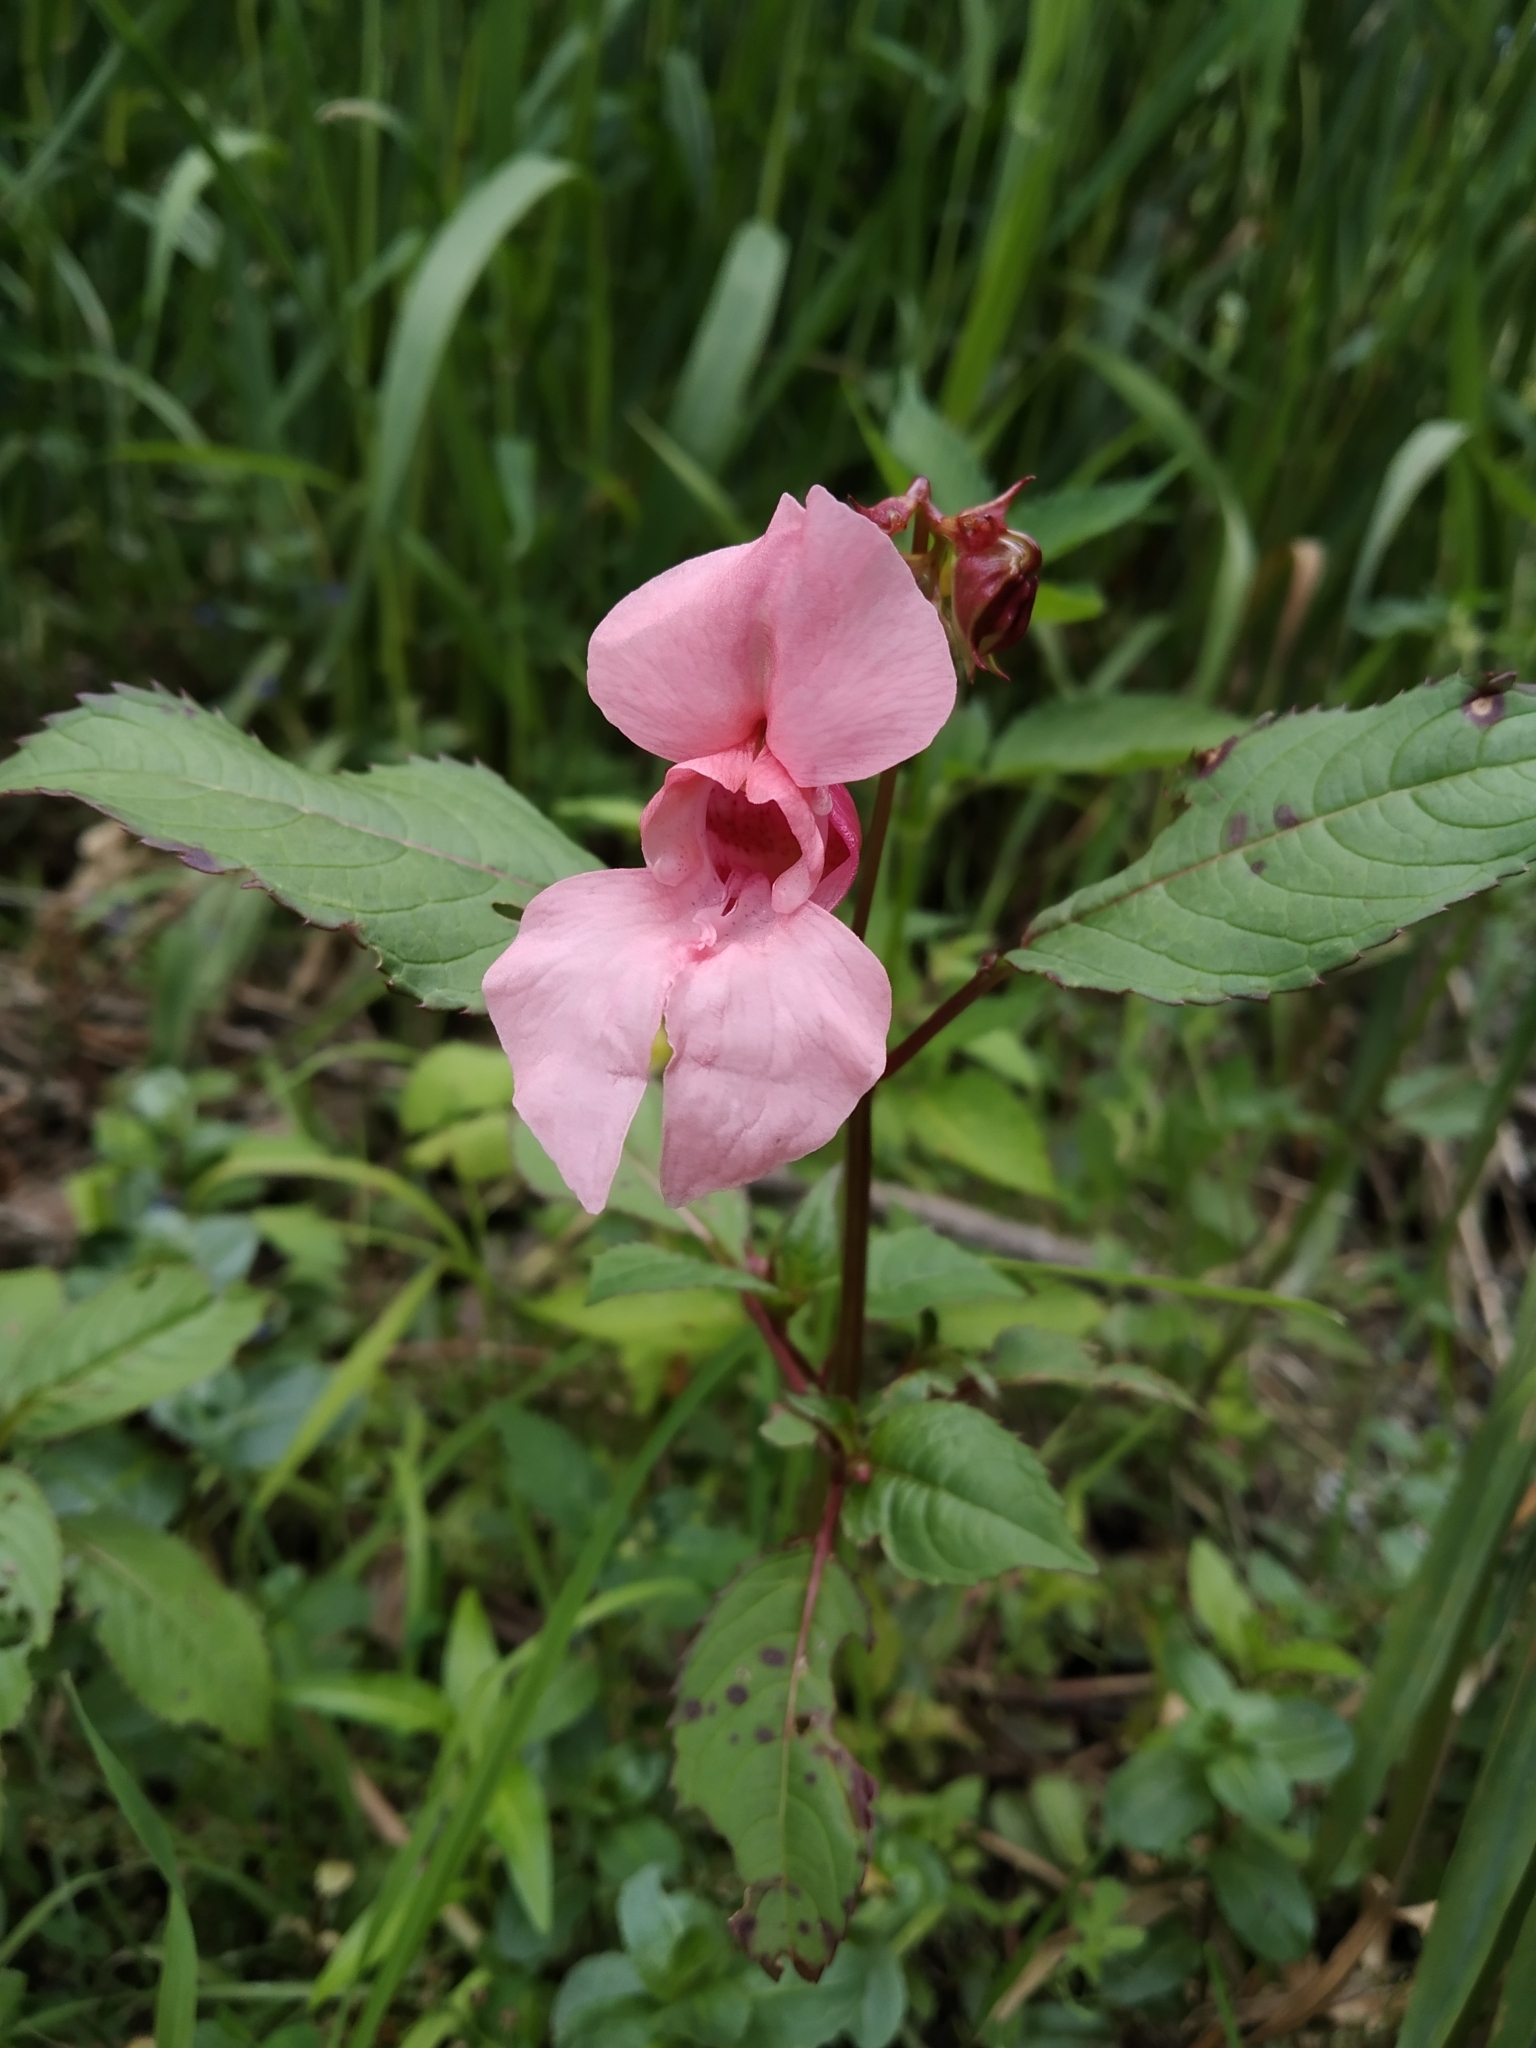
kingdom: Plantae
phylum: Tracheophyta
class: Magnoliopsida
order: Ericales
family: Balsaminaceae
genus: Impatiens
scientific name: Impatiens glandulifera
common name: Himalayan balsam
